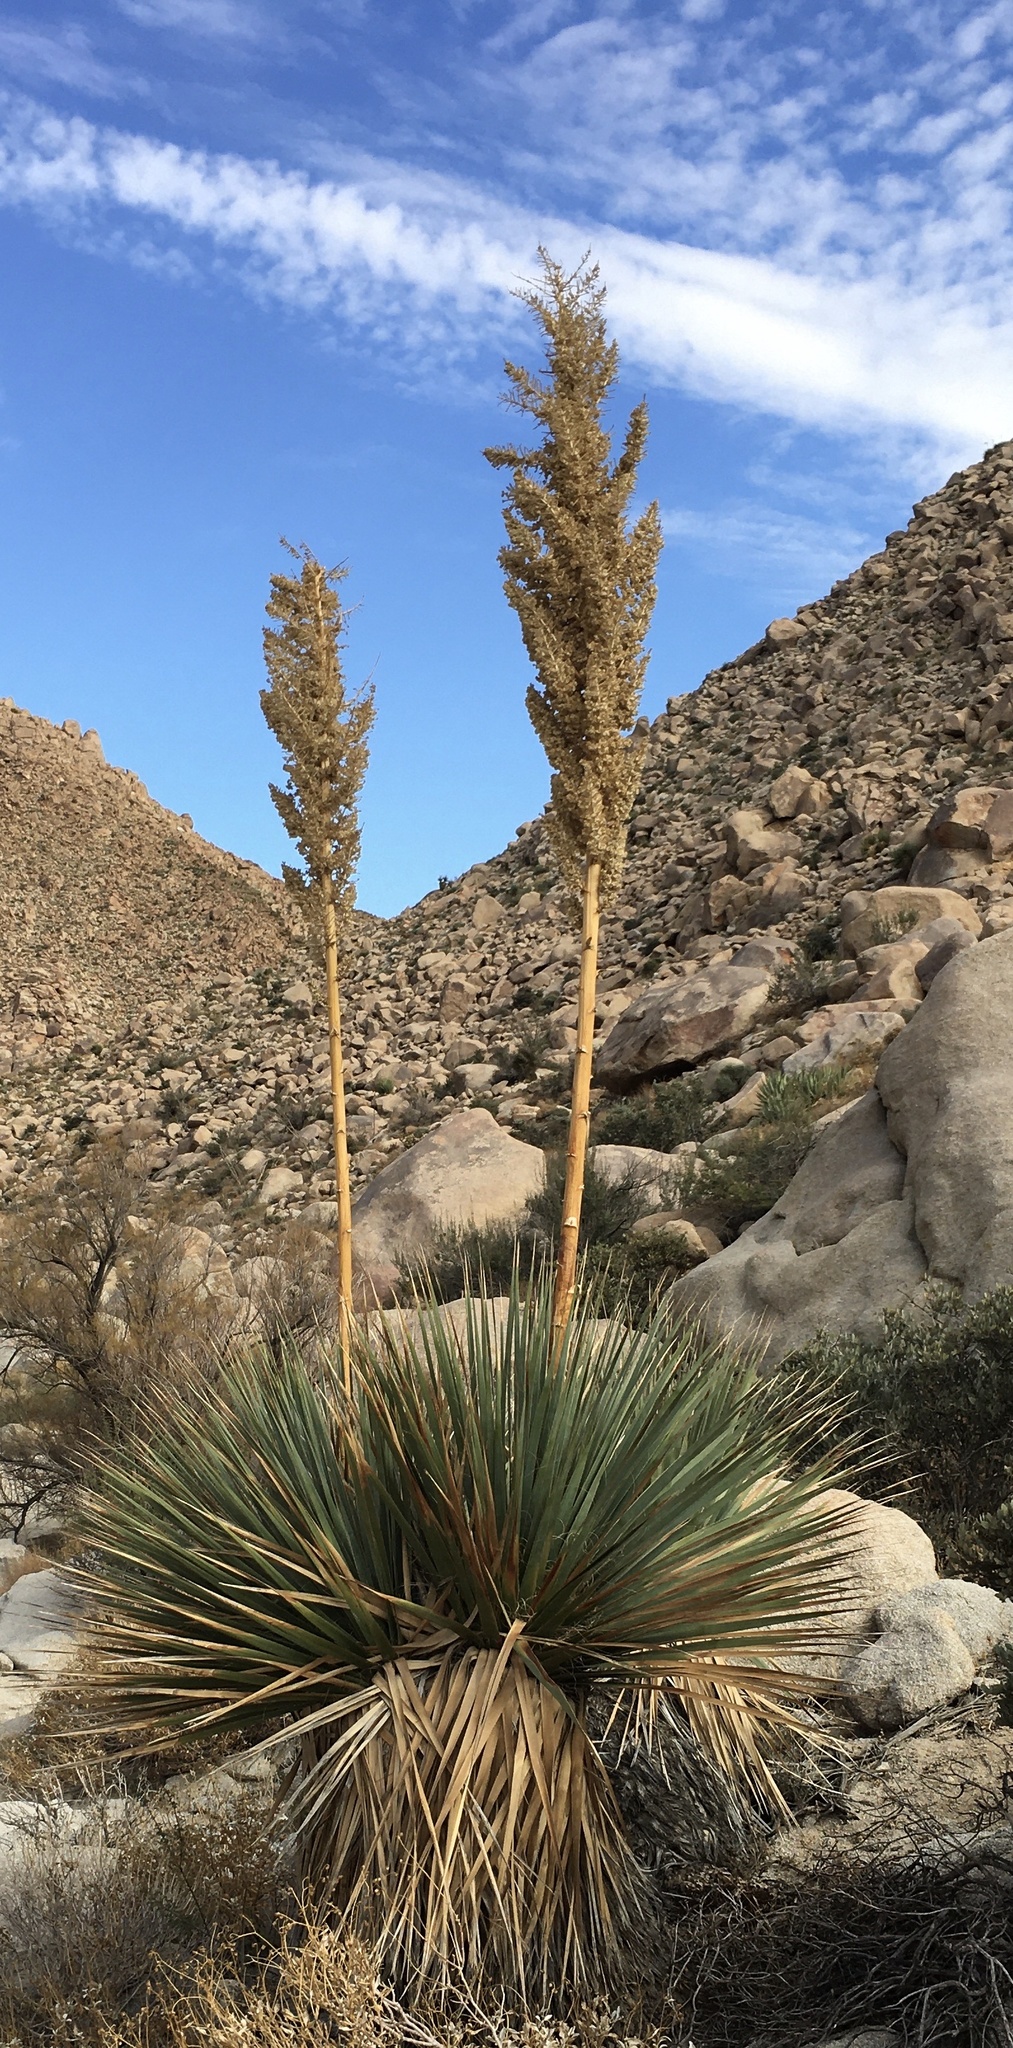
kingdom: Plantae
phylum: Tracheophyta
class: Liliopsida
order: Asparagales
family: Asparagaceae
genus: Nolina
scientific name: Nolina bigelovii
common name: Bigelow bear-grass
